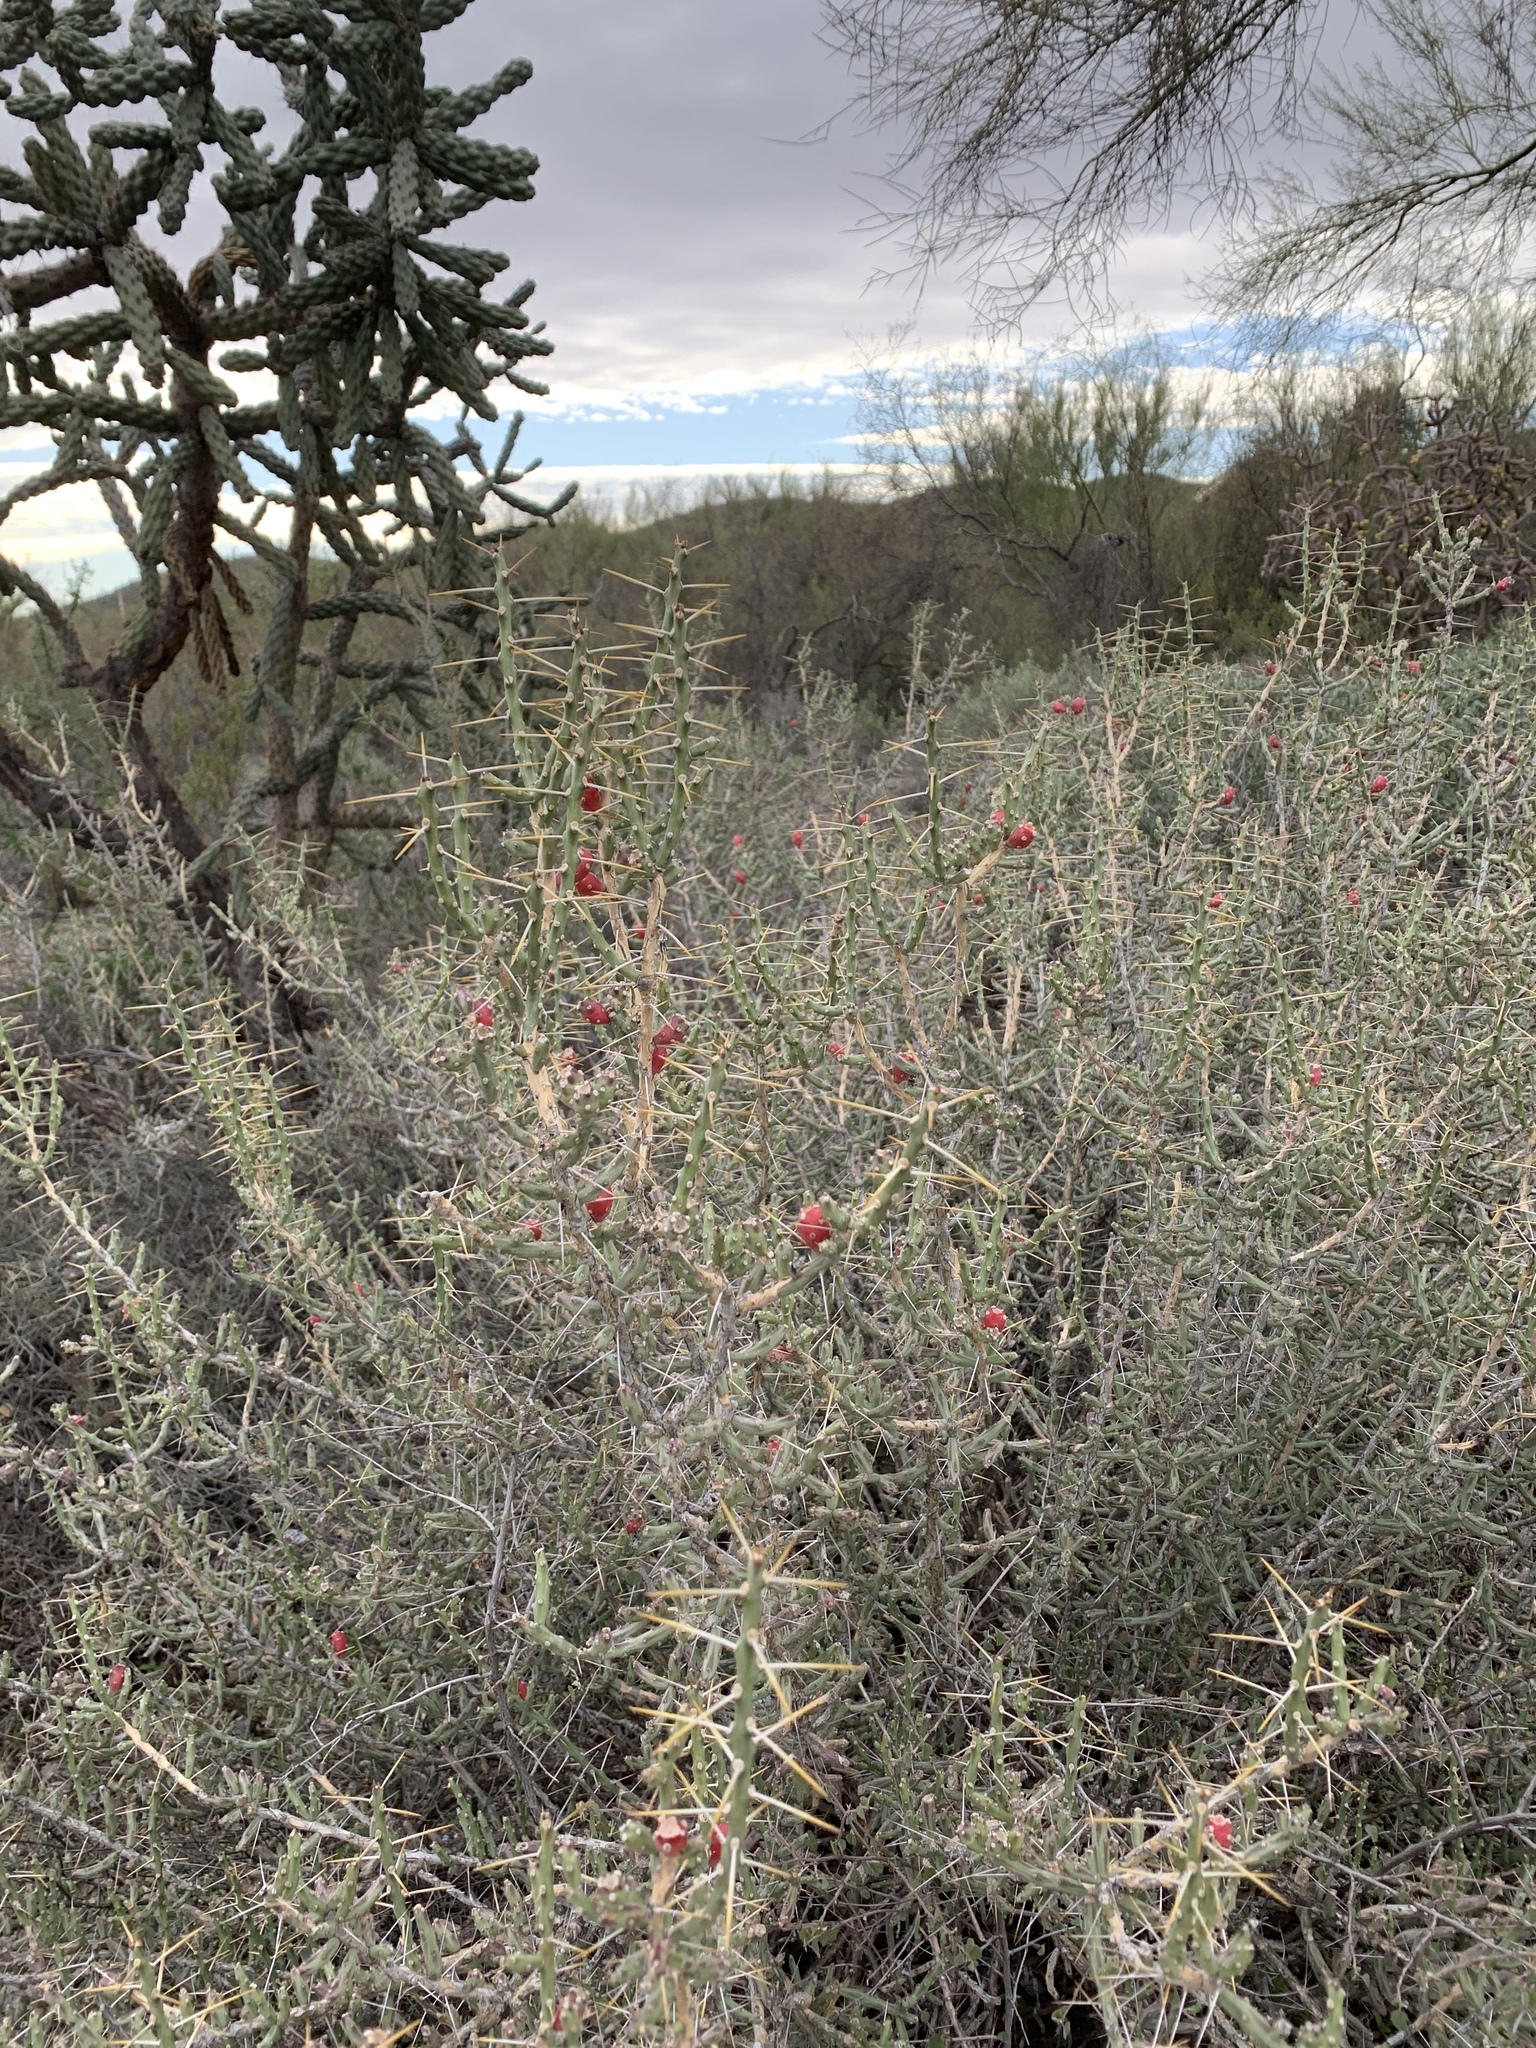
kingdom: Plantae
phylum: Tracheophyta
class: Magnoliopsida
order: Caryophyllales
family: Cactaceae
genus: Cylindropuntia
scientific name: Cylindropuntia leptocaulis
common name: Christmas cactus
